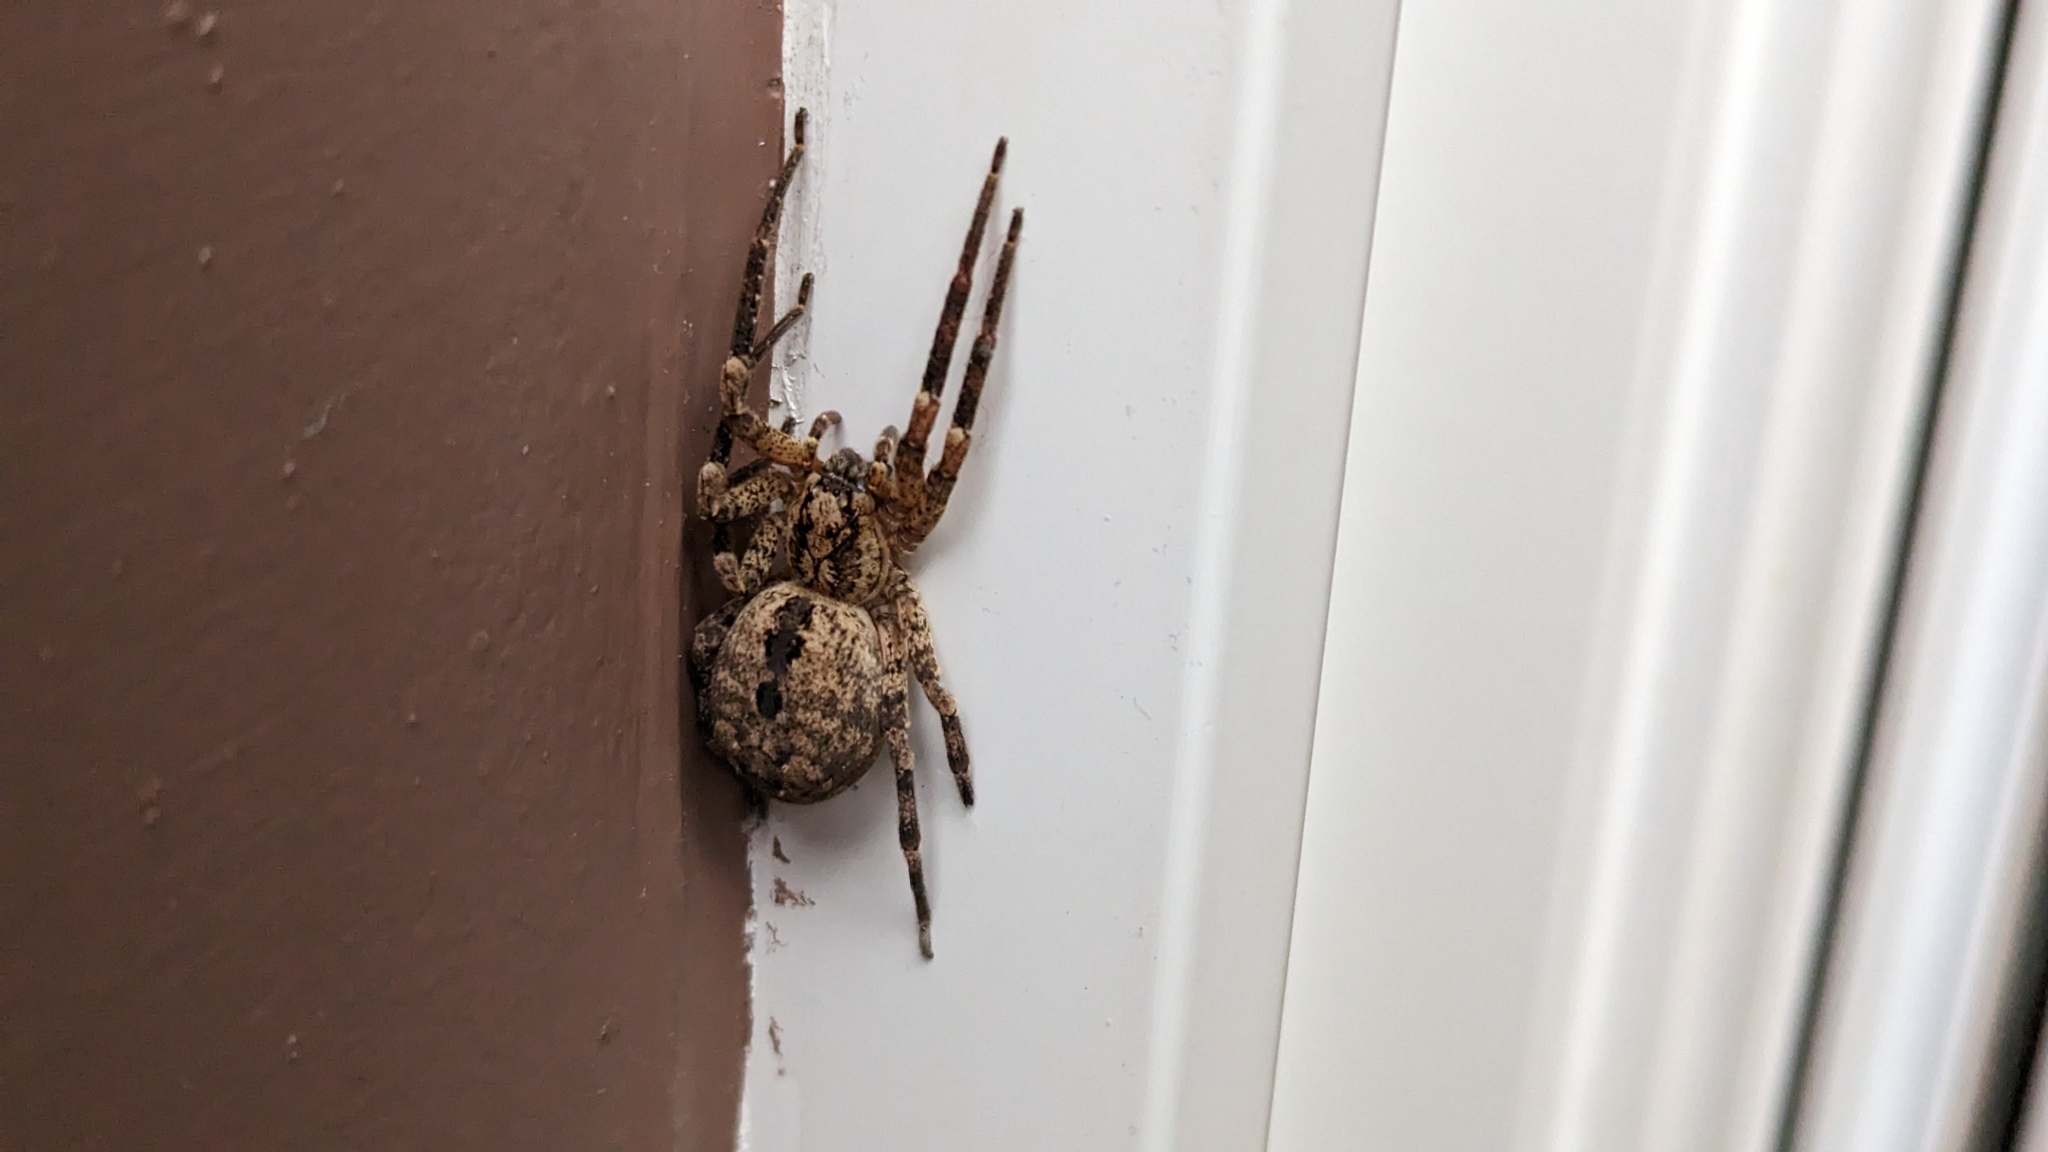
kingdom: Animalia
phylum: Arthropoda
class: Arachnida
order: Araneae
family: Zoropsidae
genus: Zoropsis
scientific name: Zoropsis spinimana
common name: Zoropsid spider
